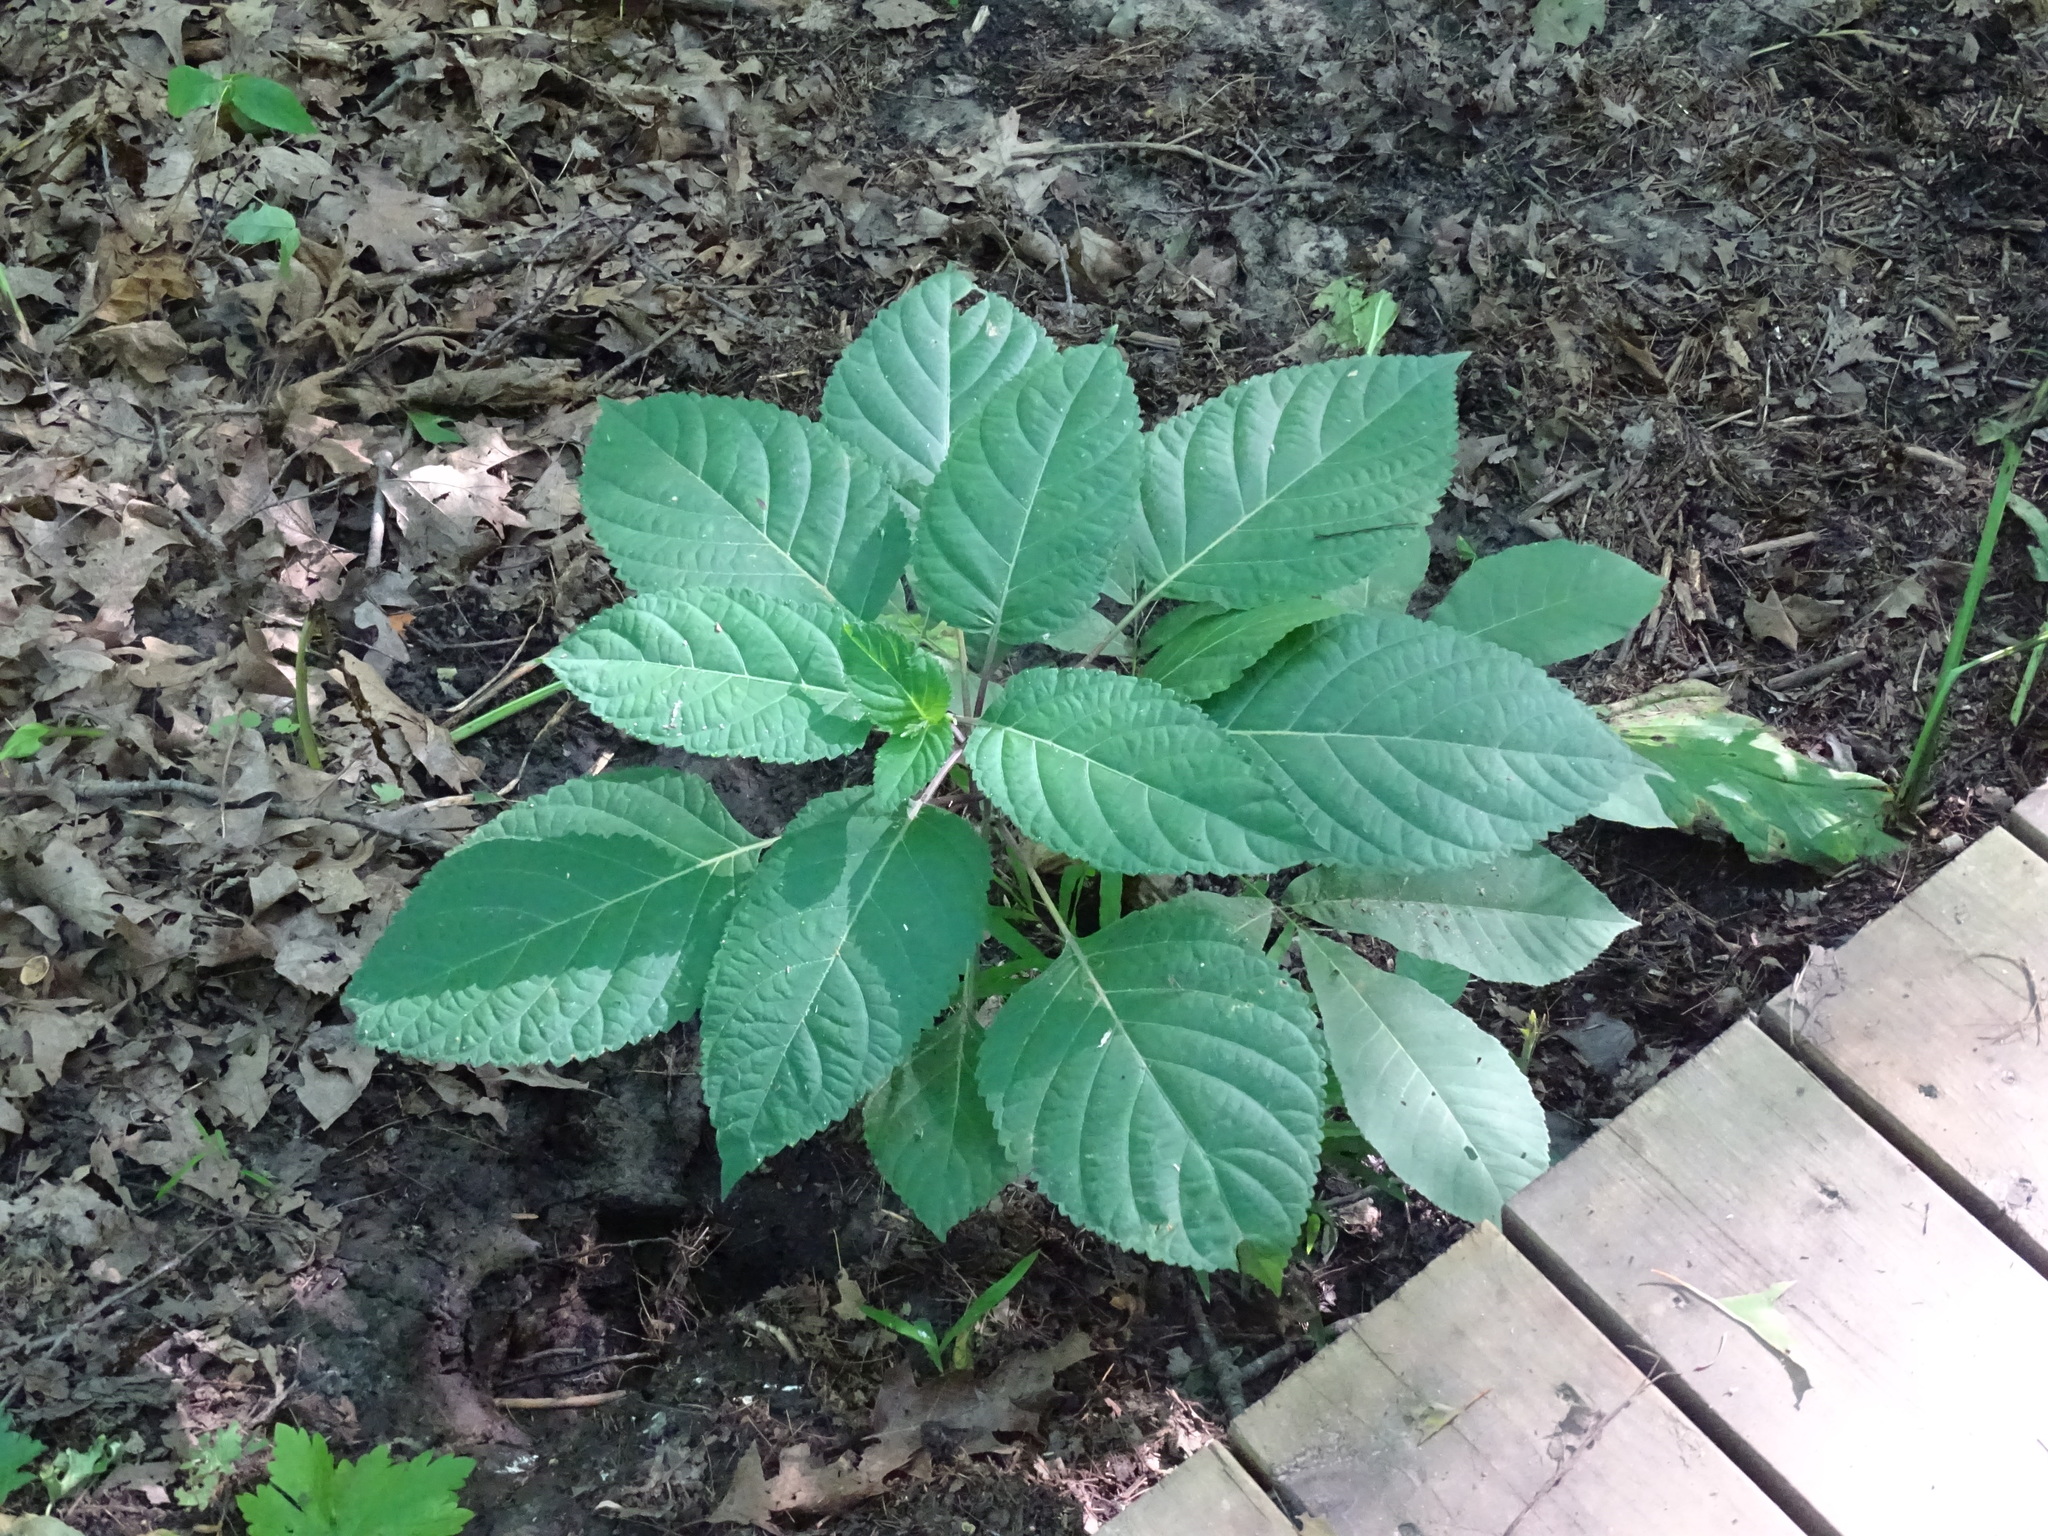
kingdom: Plantae
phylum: Tracheophyta
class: Magnoliopsida
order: Rosales
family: Urticaceae
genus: Boehmeria
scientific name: Boehmeria cylindrica
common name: Bog-hemp
